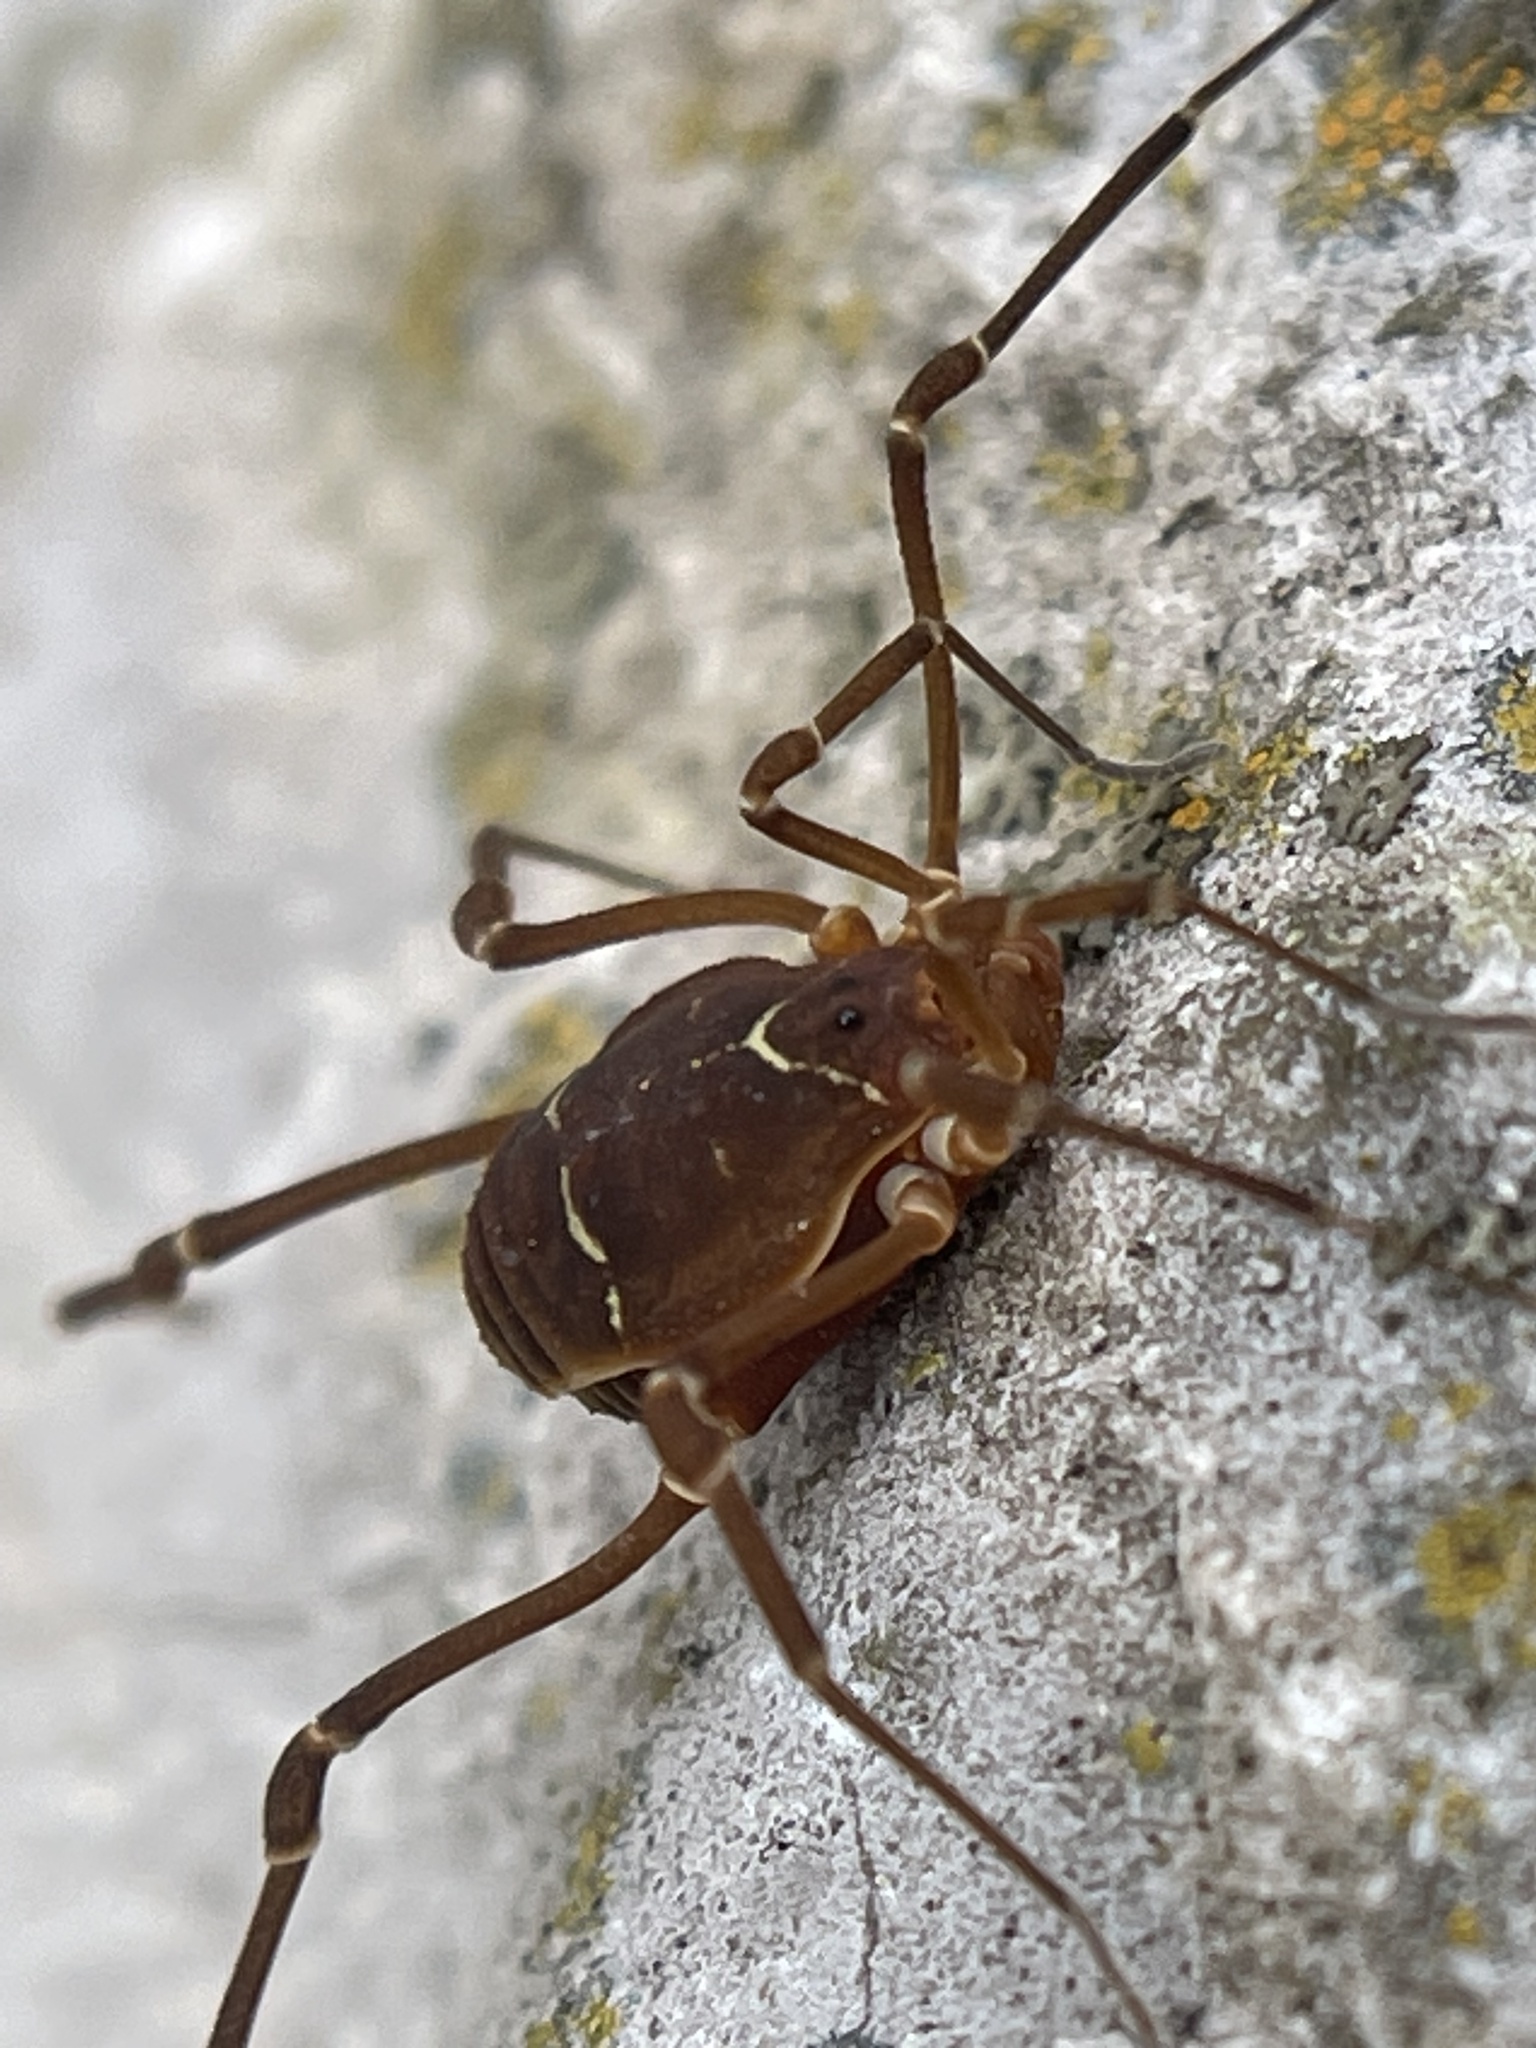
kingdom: Animalia
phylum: Arthropoda
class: Arachnida
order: Opiliones
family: Cosmetidae
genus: Libitioides
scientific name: Libitioides sayi
